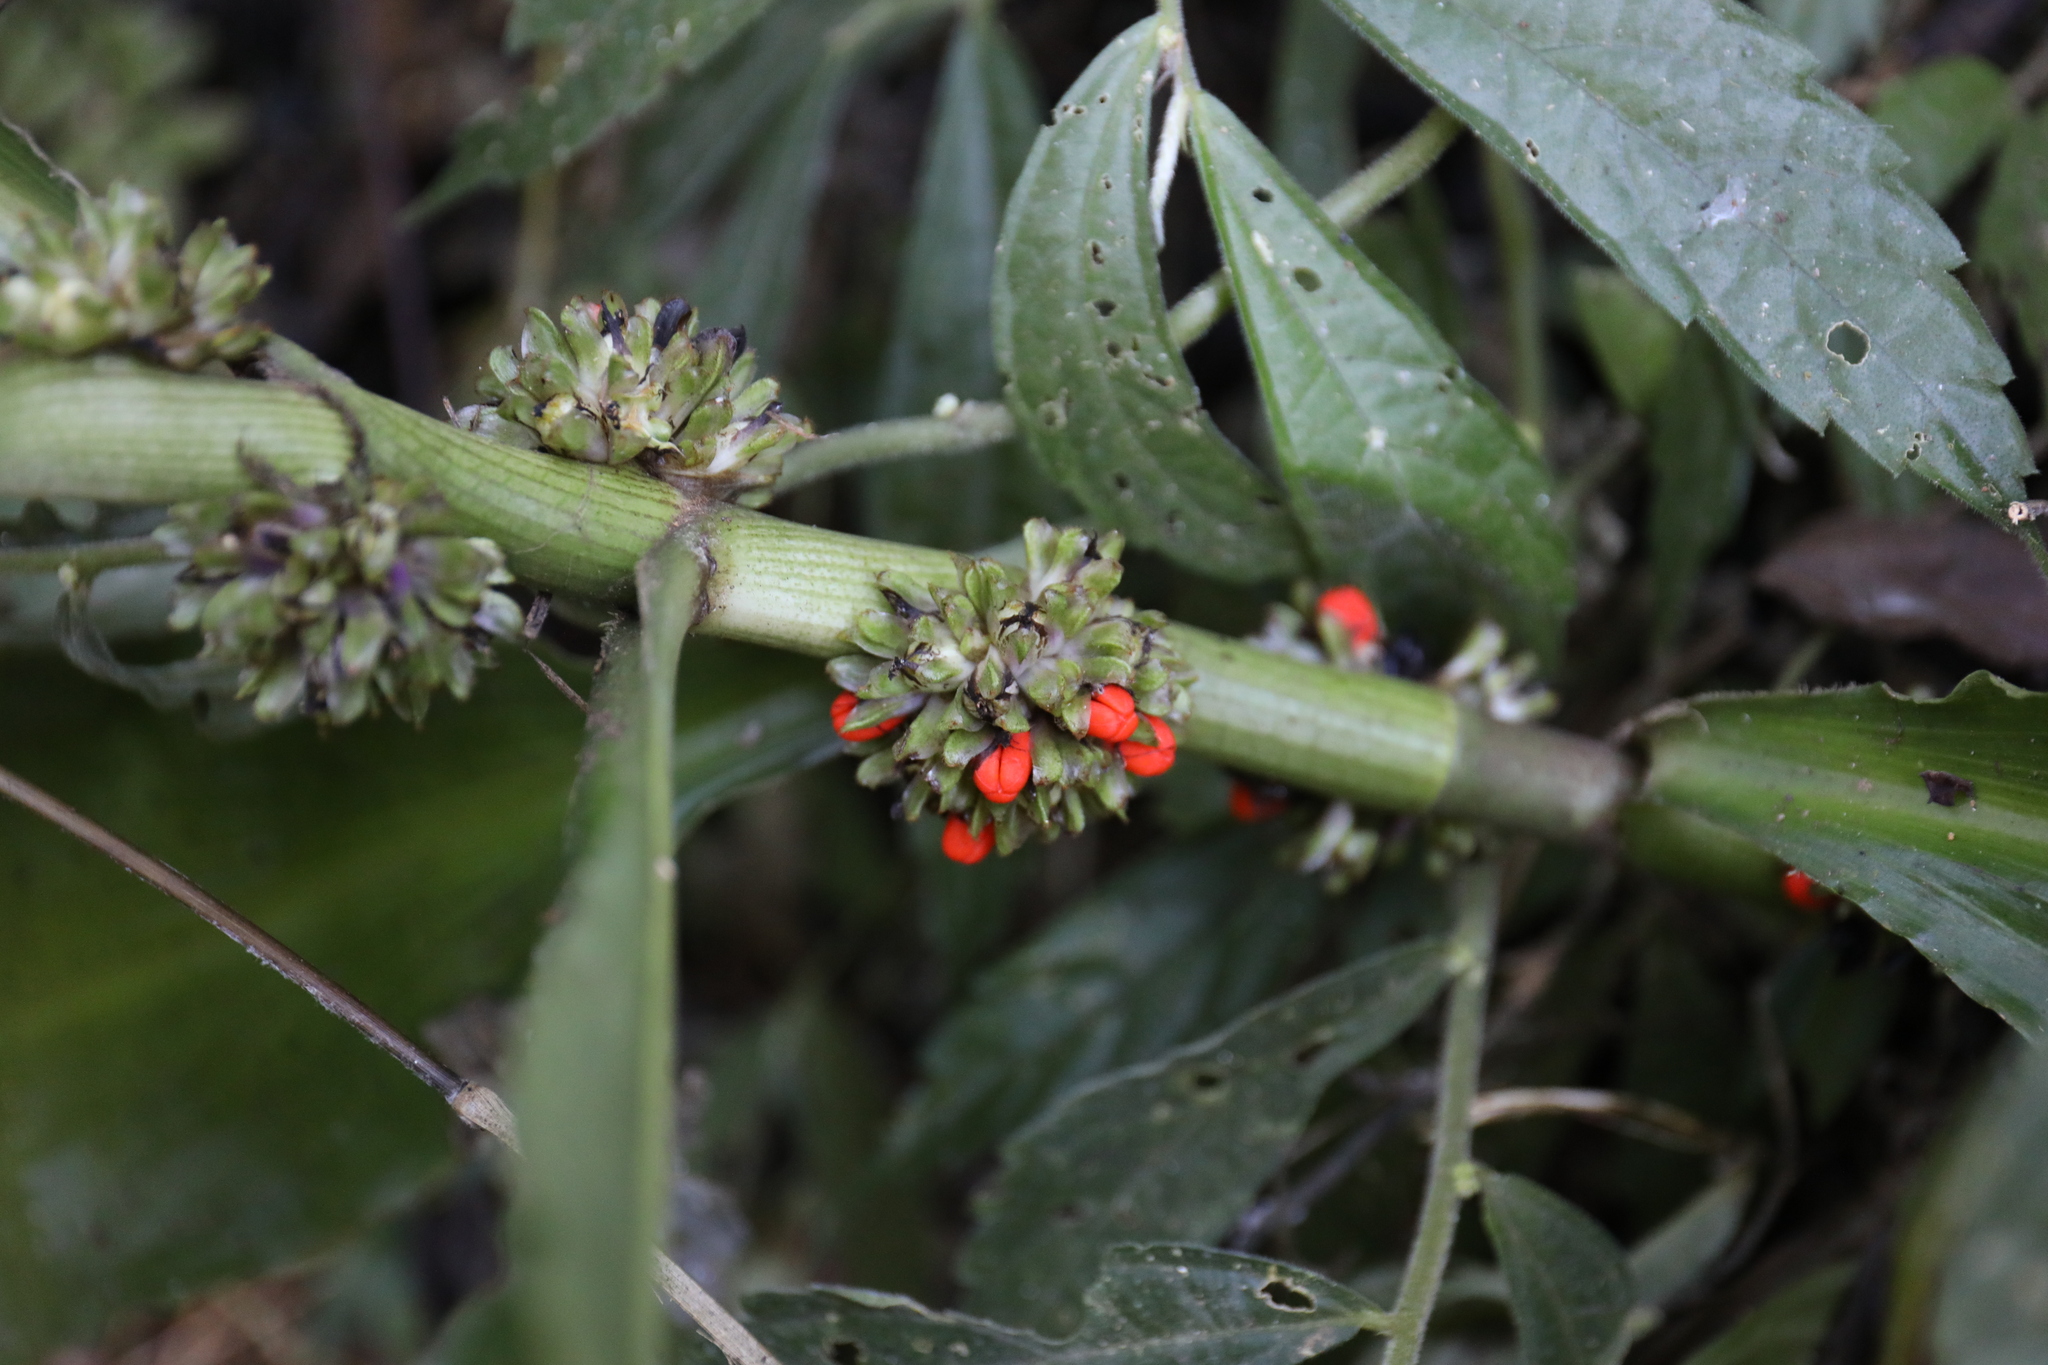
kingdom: Plantae
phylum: Tracheophyta
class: Liliopsida
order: Commelinales
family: Commelinaceae
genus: Amischotolype
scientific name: Amischotolype glabrata
